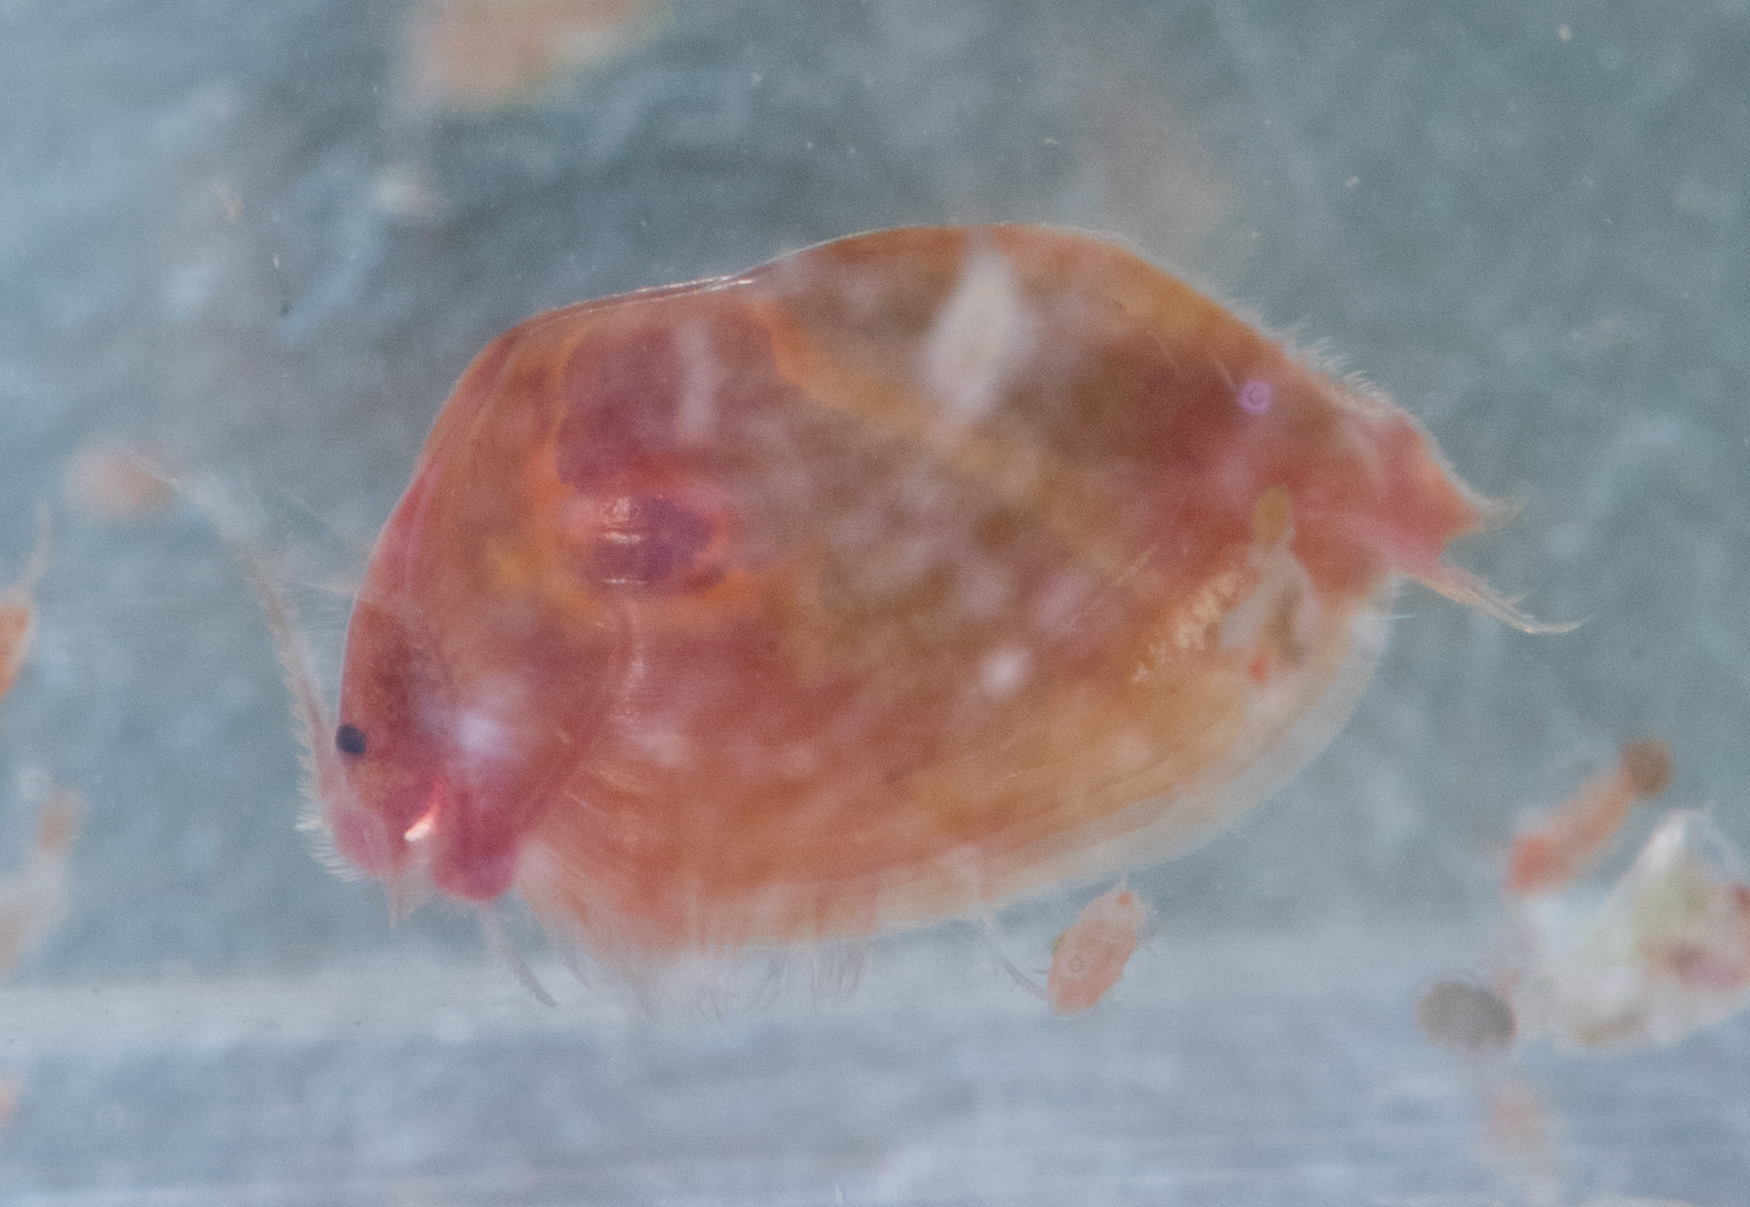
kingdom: Animalia
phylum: Arthropoda
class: Branchiopoda
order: Diplostraca
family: Cyzicidae
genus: Cyzicus
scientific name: Cyzicus californicus
